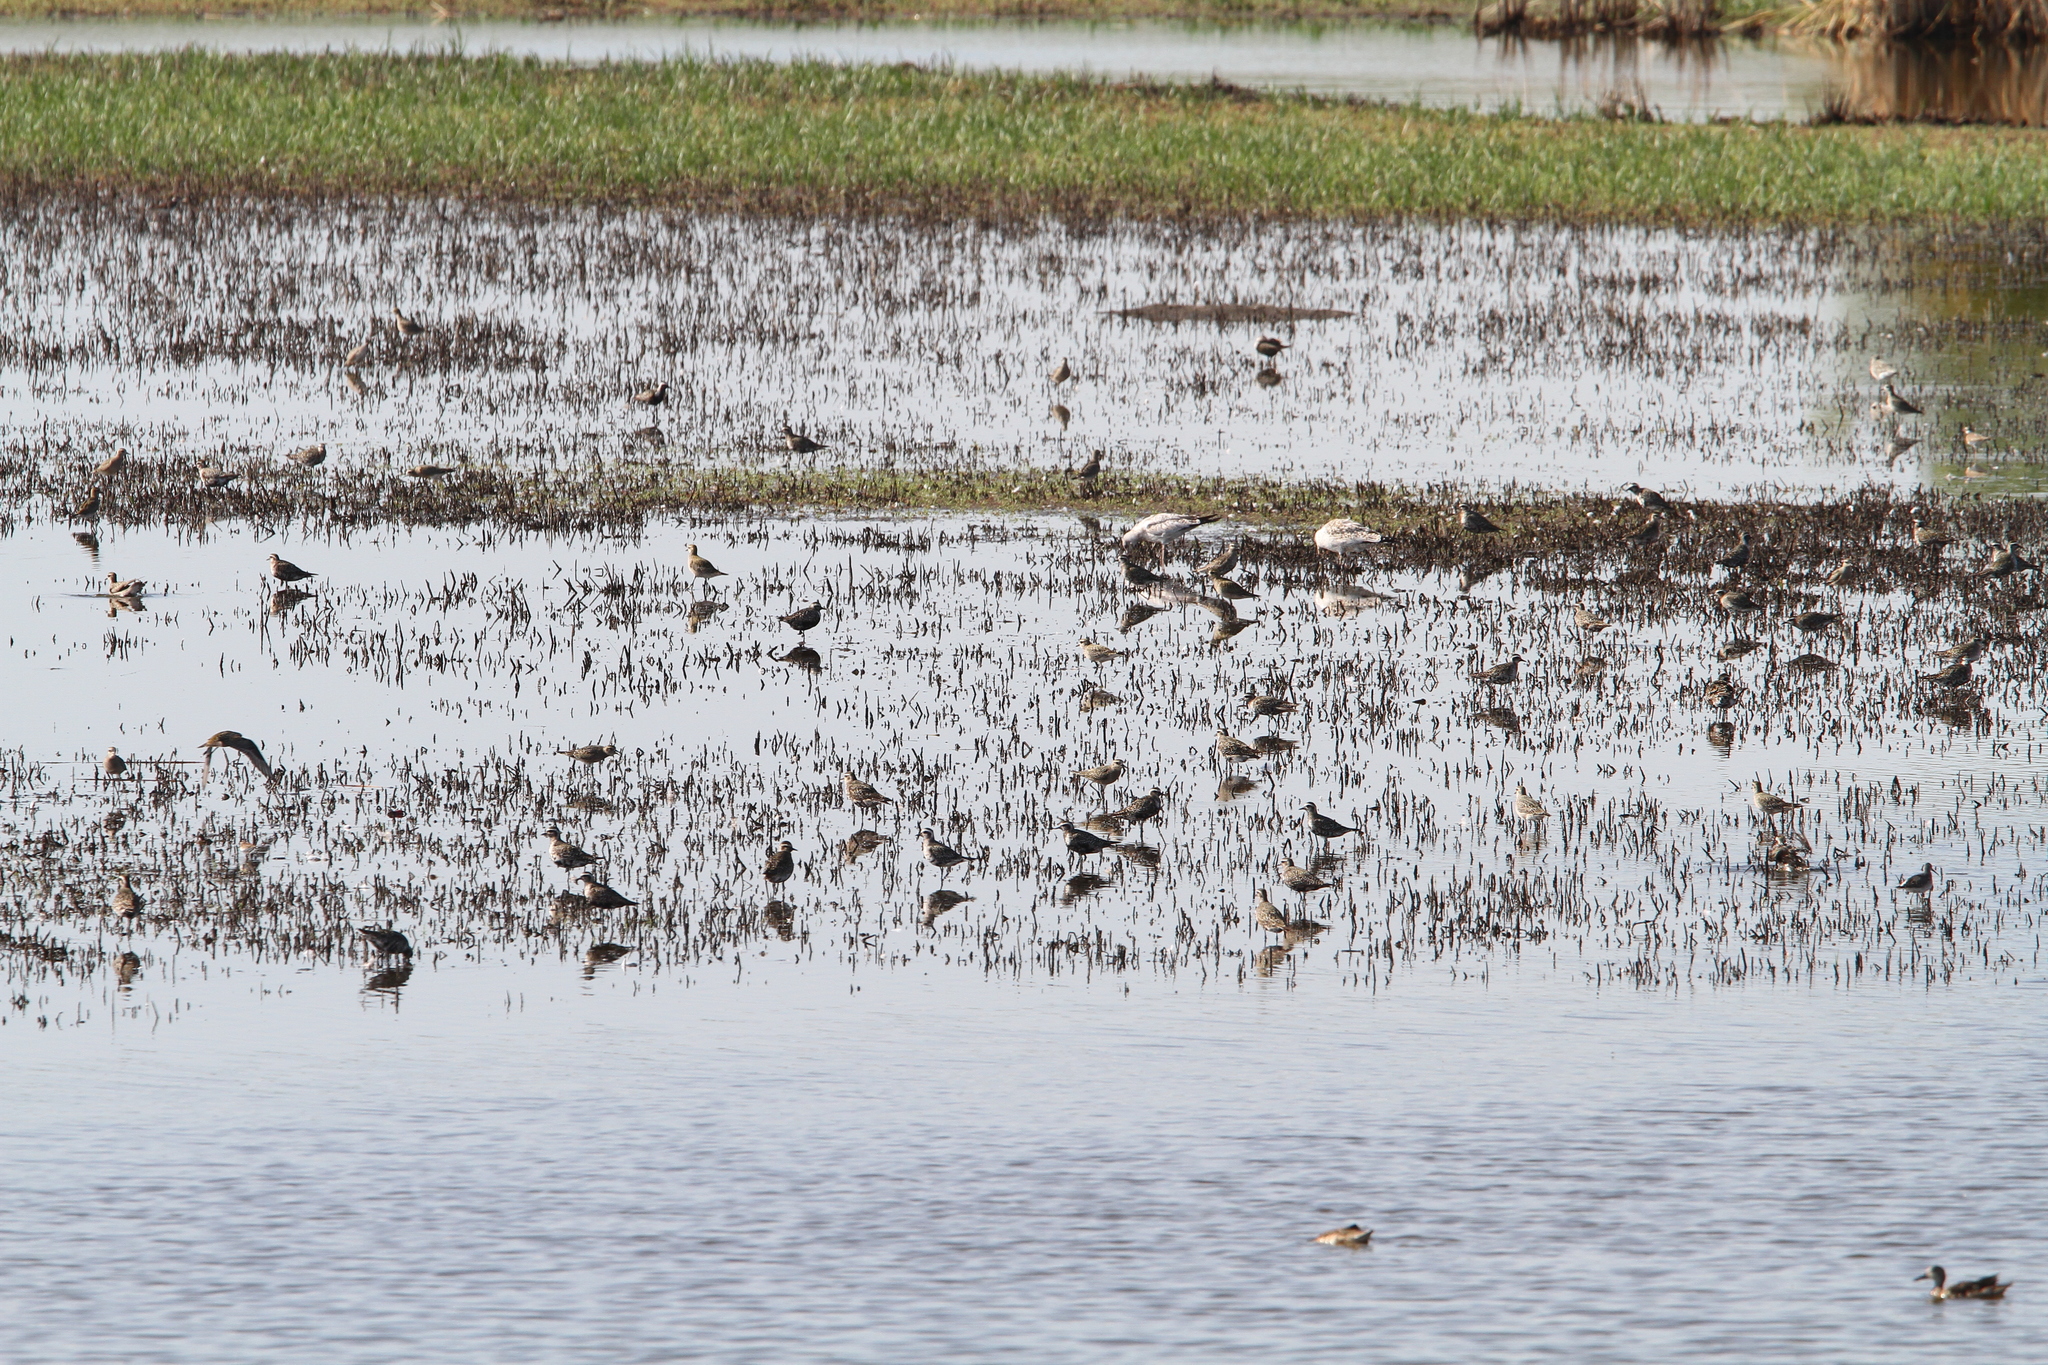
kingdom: Animalia
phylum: Chordata
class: Aves
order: Charadriiformes
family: Charadriidae
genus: Pluvialis
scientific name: Pluvialis dominica
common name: American golden plover
